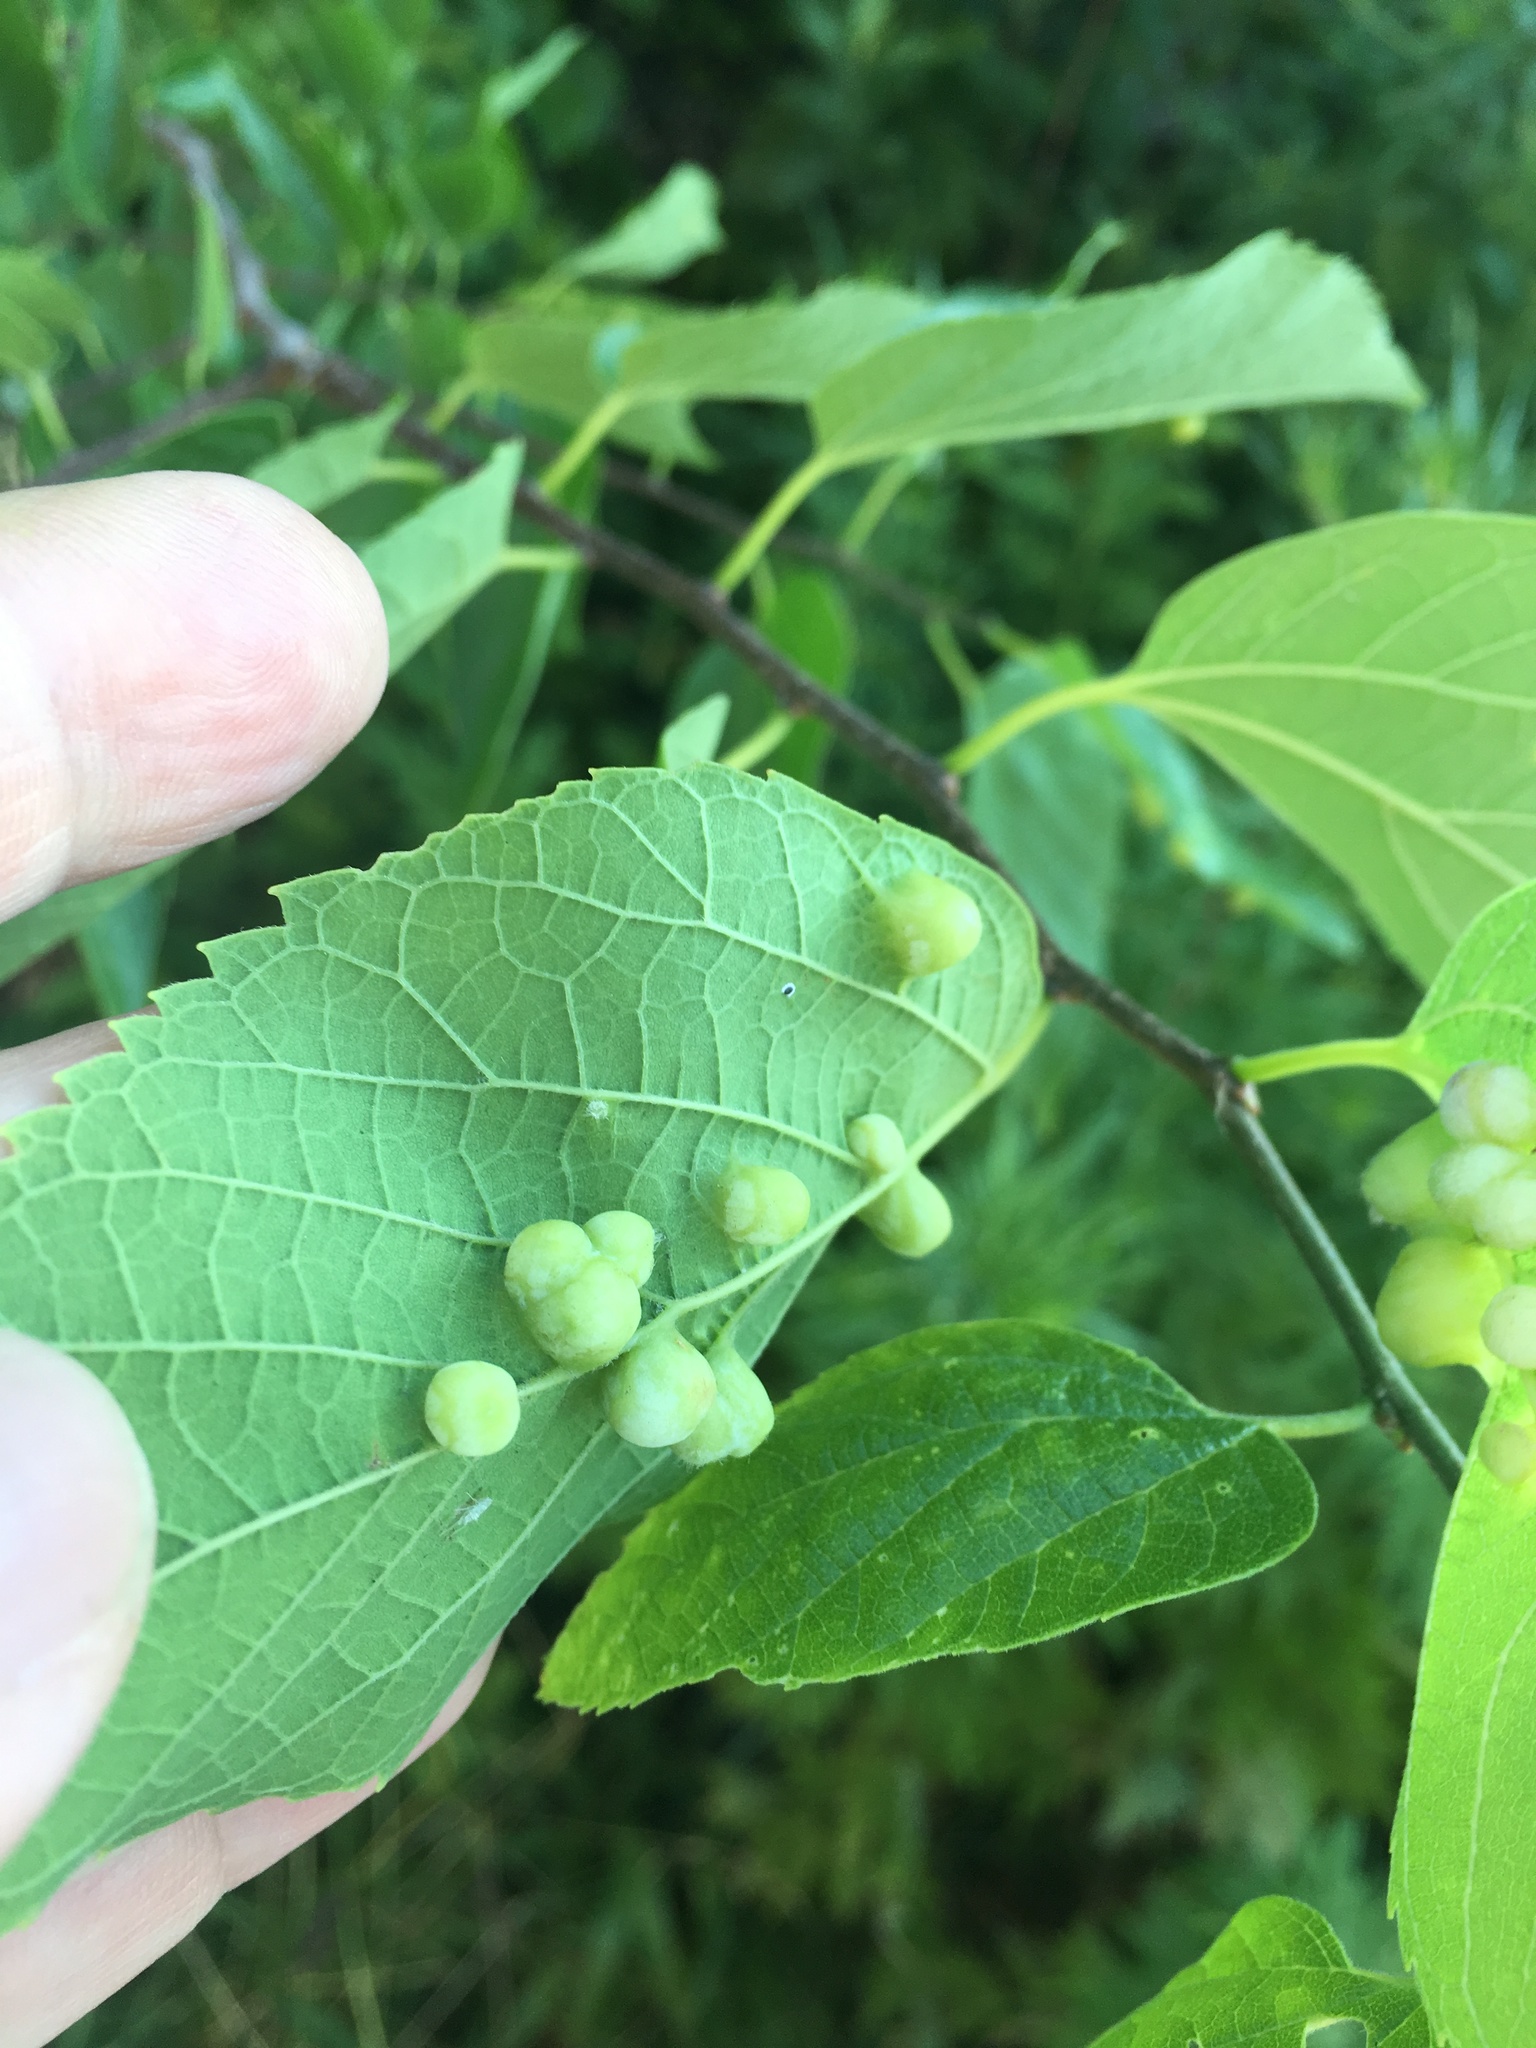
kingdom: Animalia
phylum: Arthropoda
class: Insecta
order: Hemiptera
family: Aphalaridae
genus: Pachypsylla
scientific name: Pachypsylla celtidismamma
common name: Hackberry nipplegall psyllid
